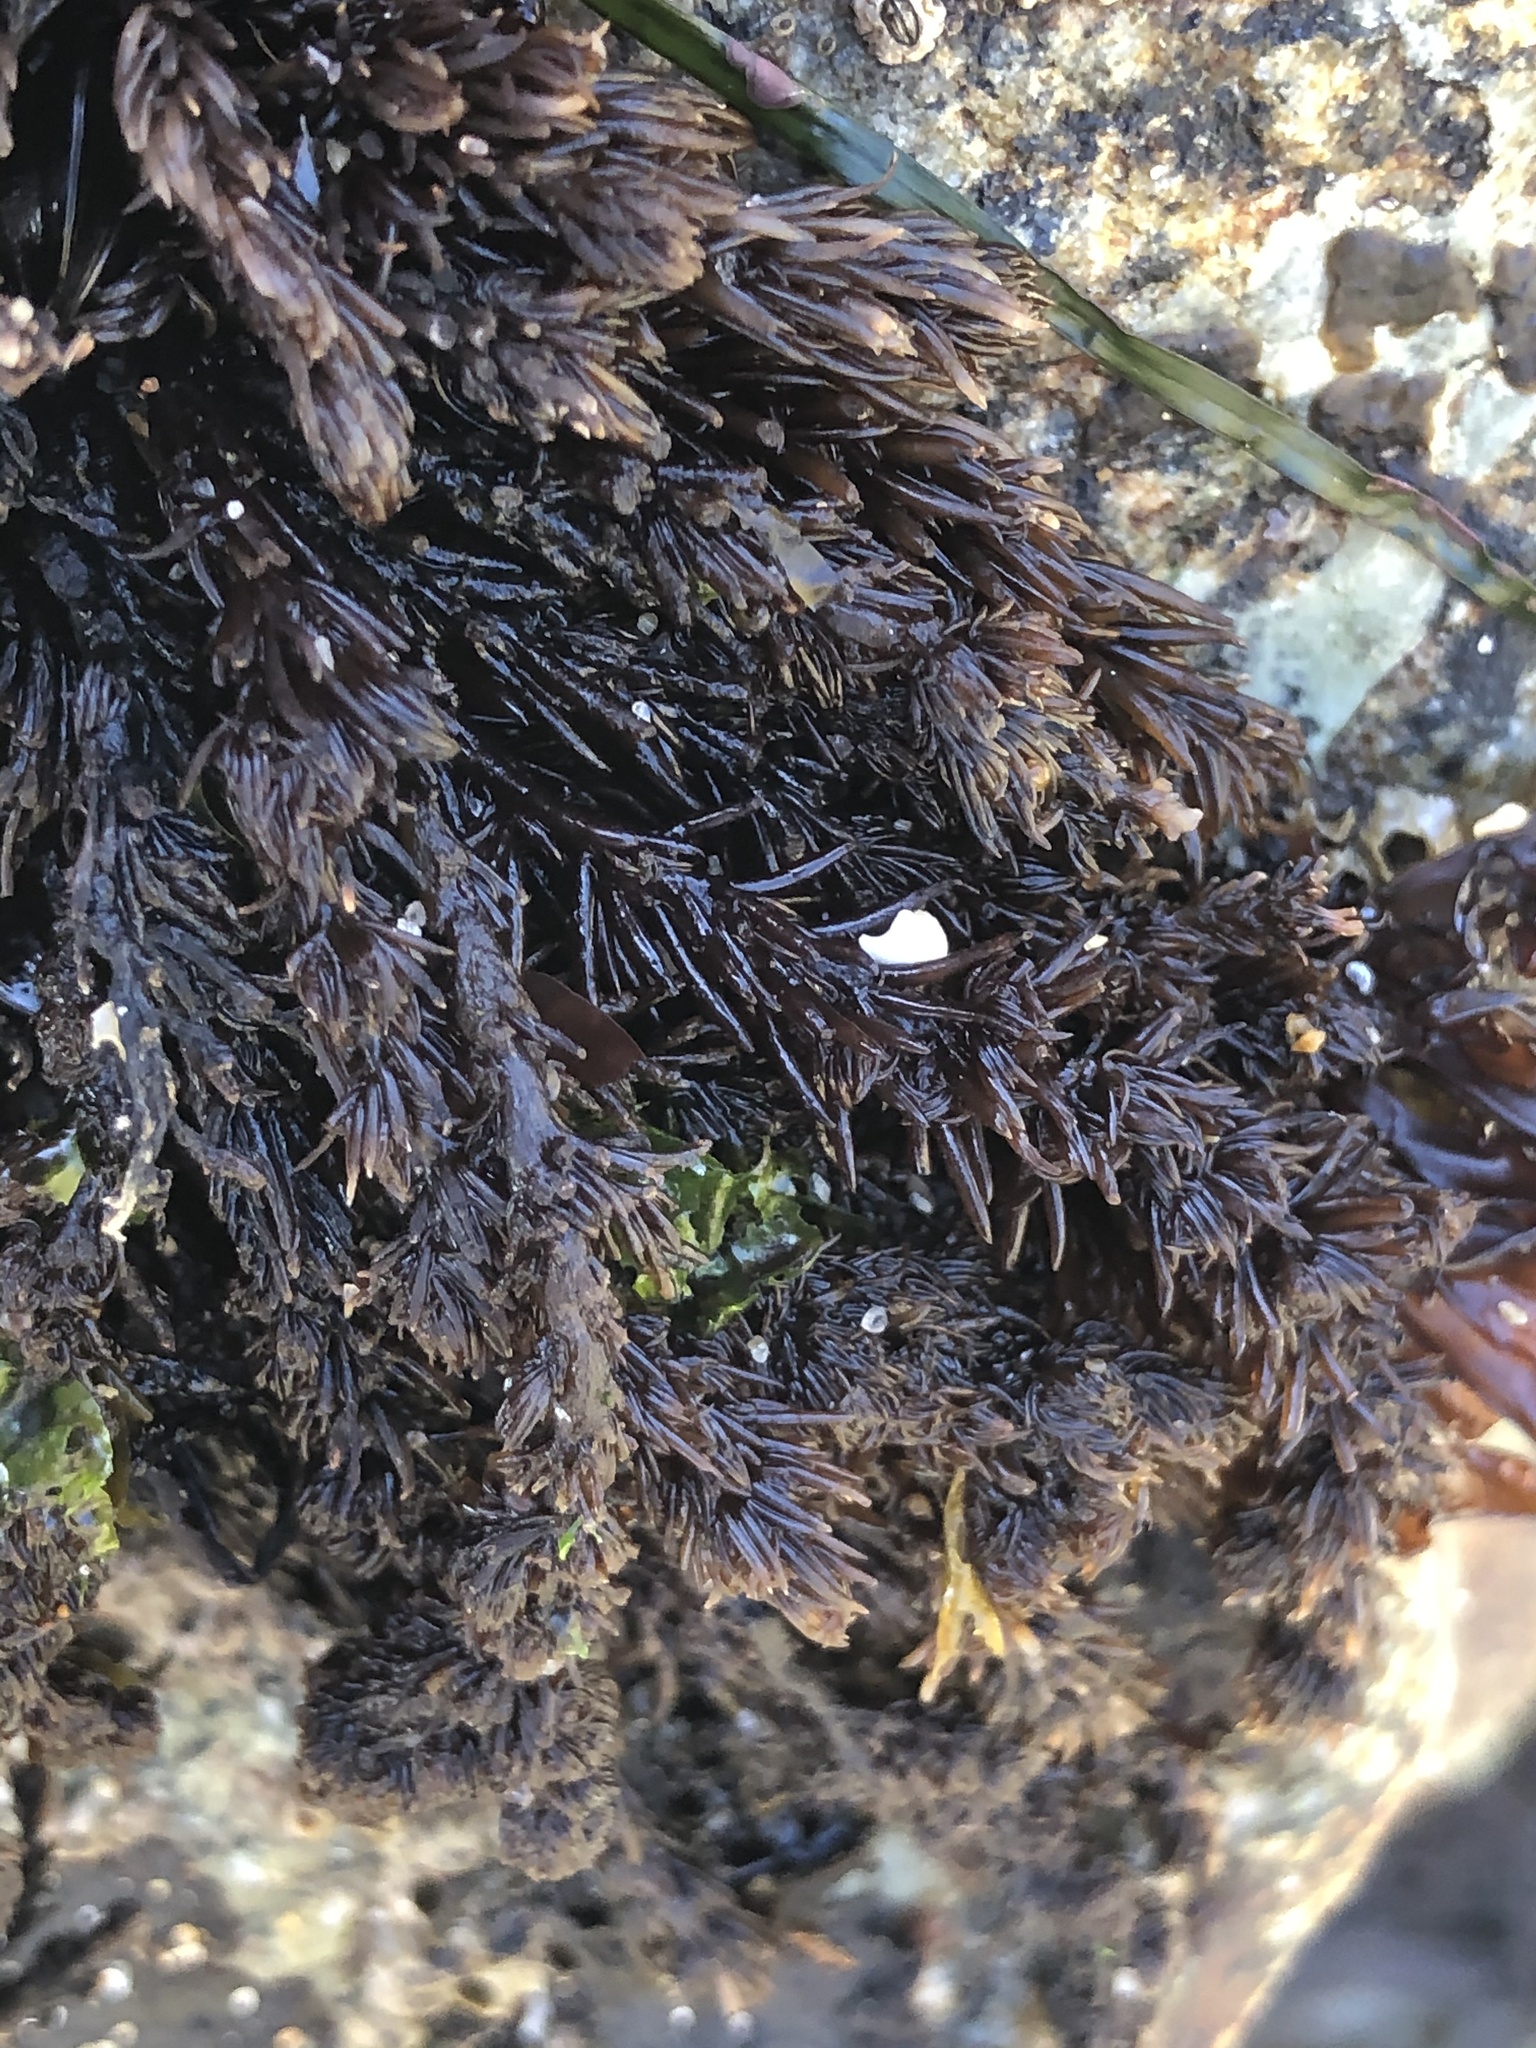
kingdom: Plantae
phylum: Rhodophyta
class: Florideophyceae
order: Ceramiales
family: Rhodomelaceae
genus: Neorhodomela
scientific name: Neorhodomela larix
